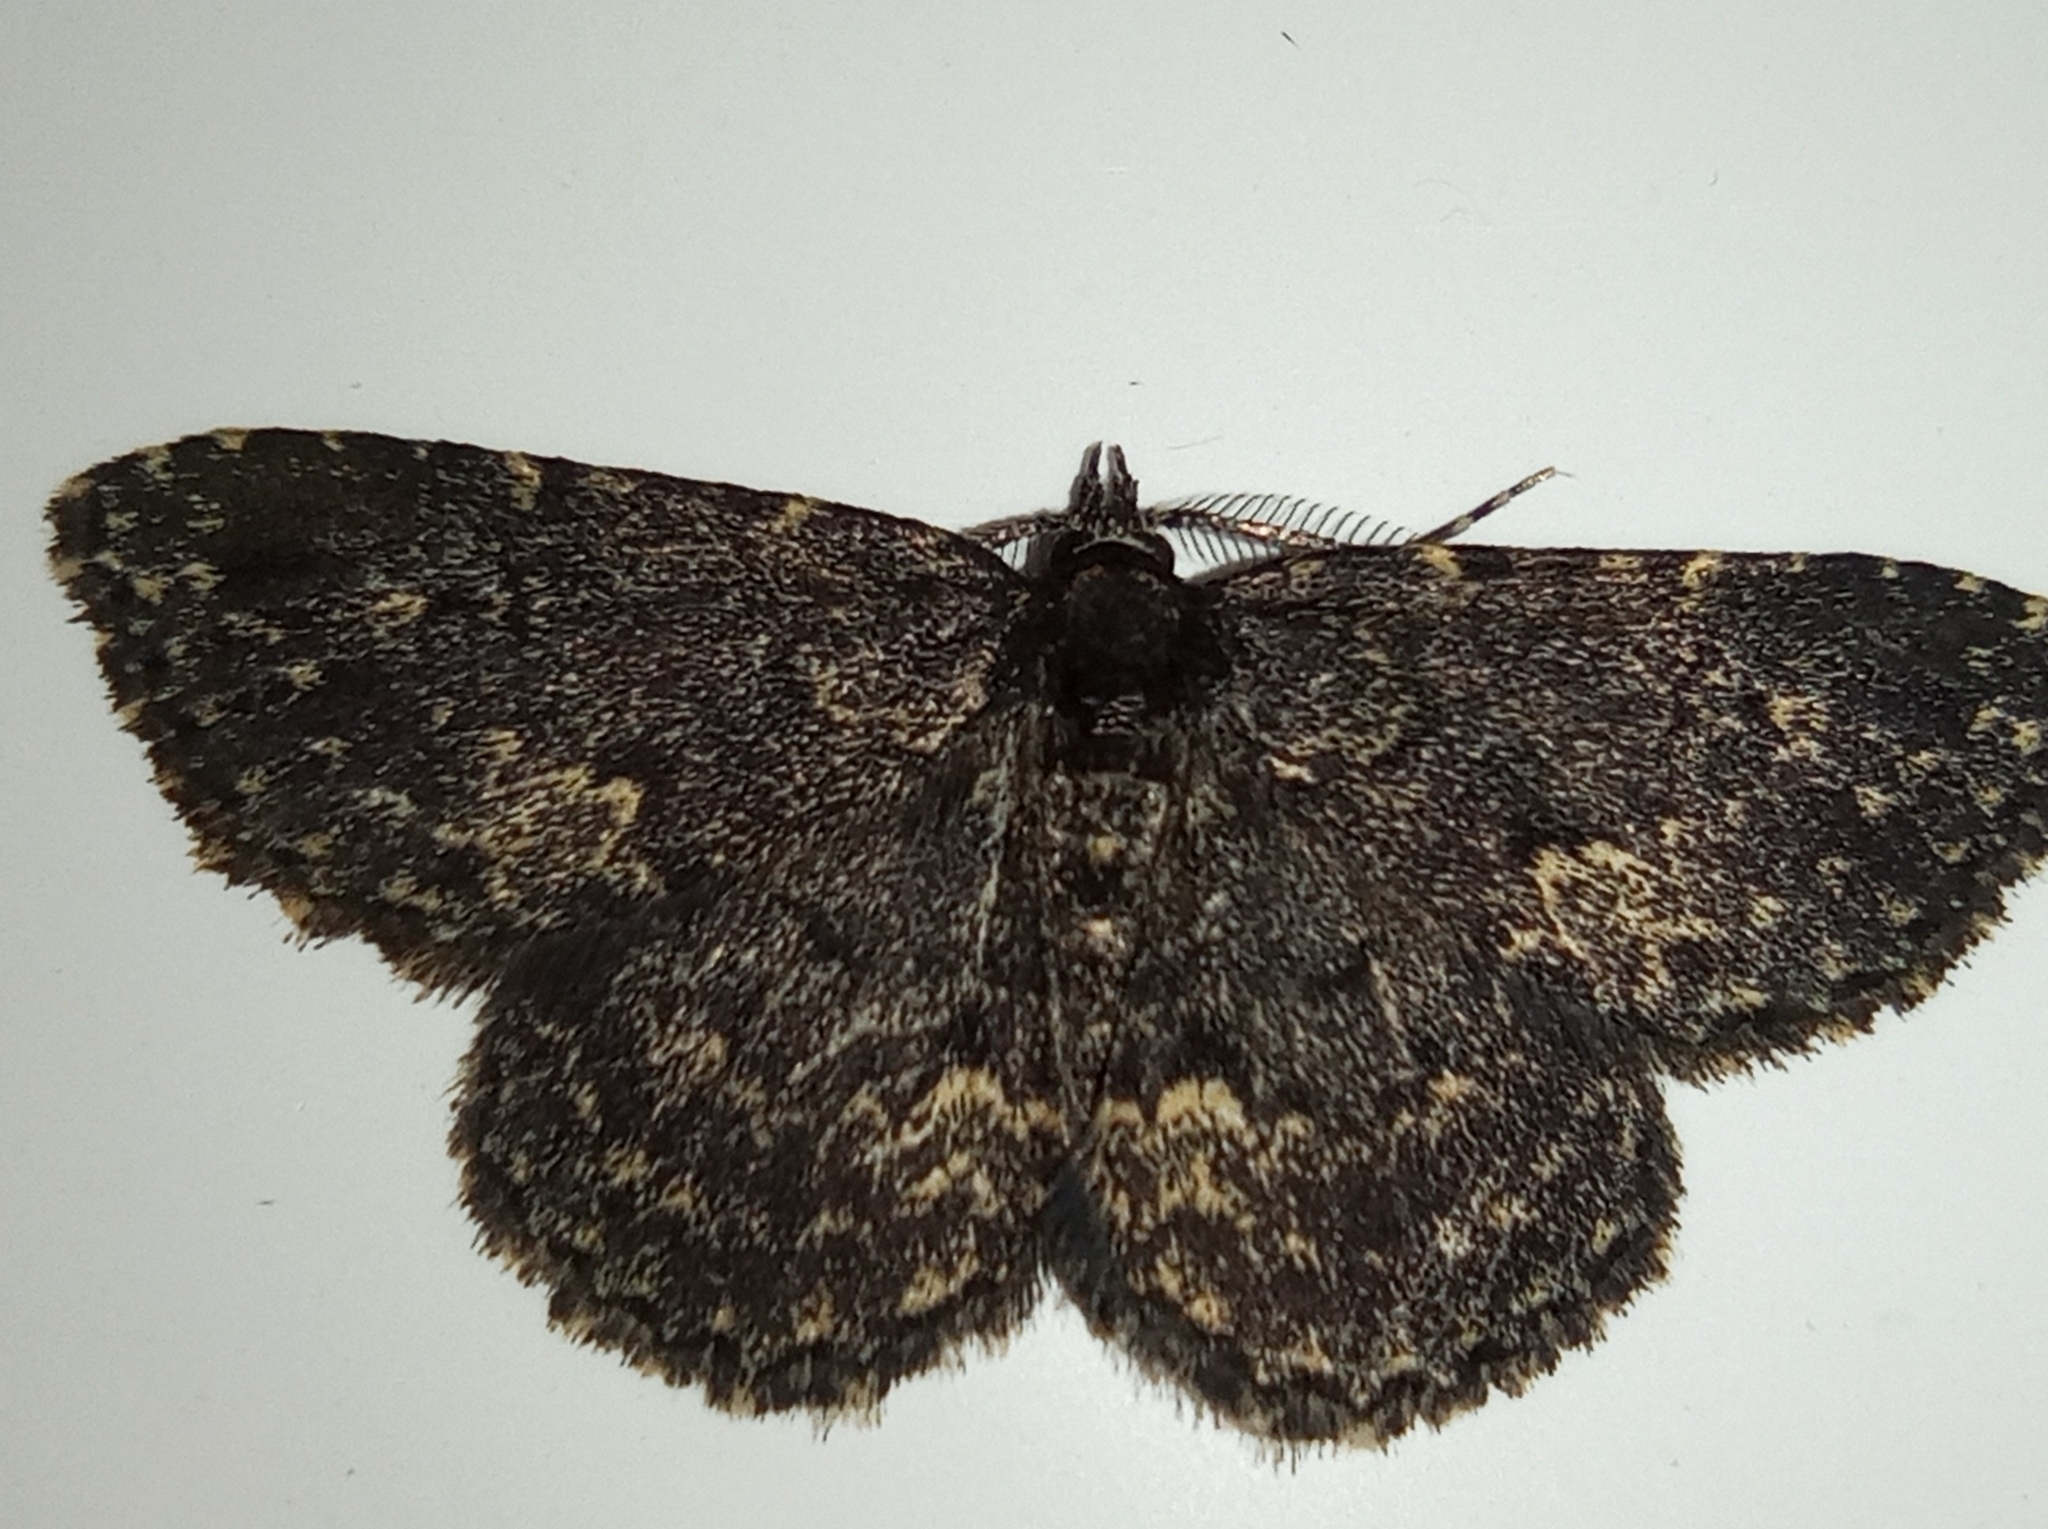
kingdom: Animalia
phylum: Arthropoda
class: Insecta
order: Lepidoptera
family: Erebidae
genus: Parascotia
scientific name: Parascotia fuliginaria
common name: Waved black
